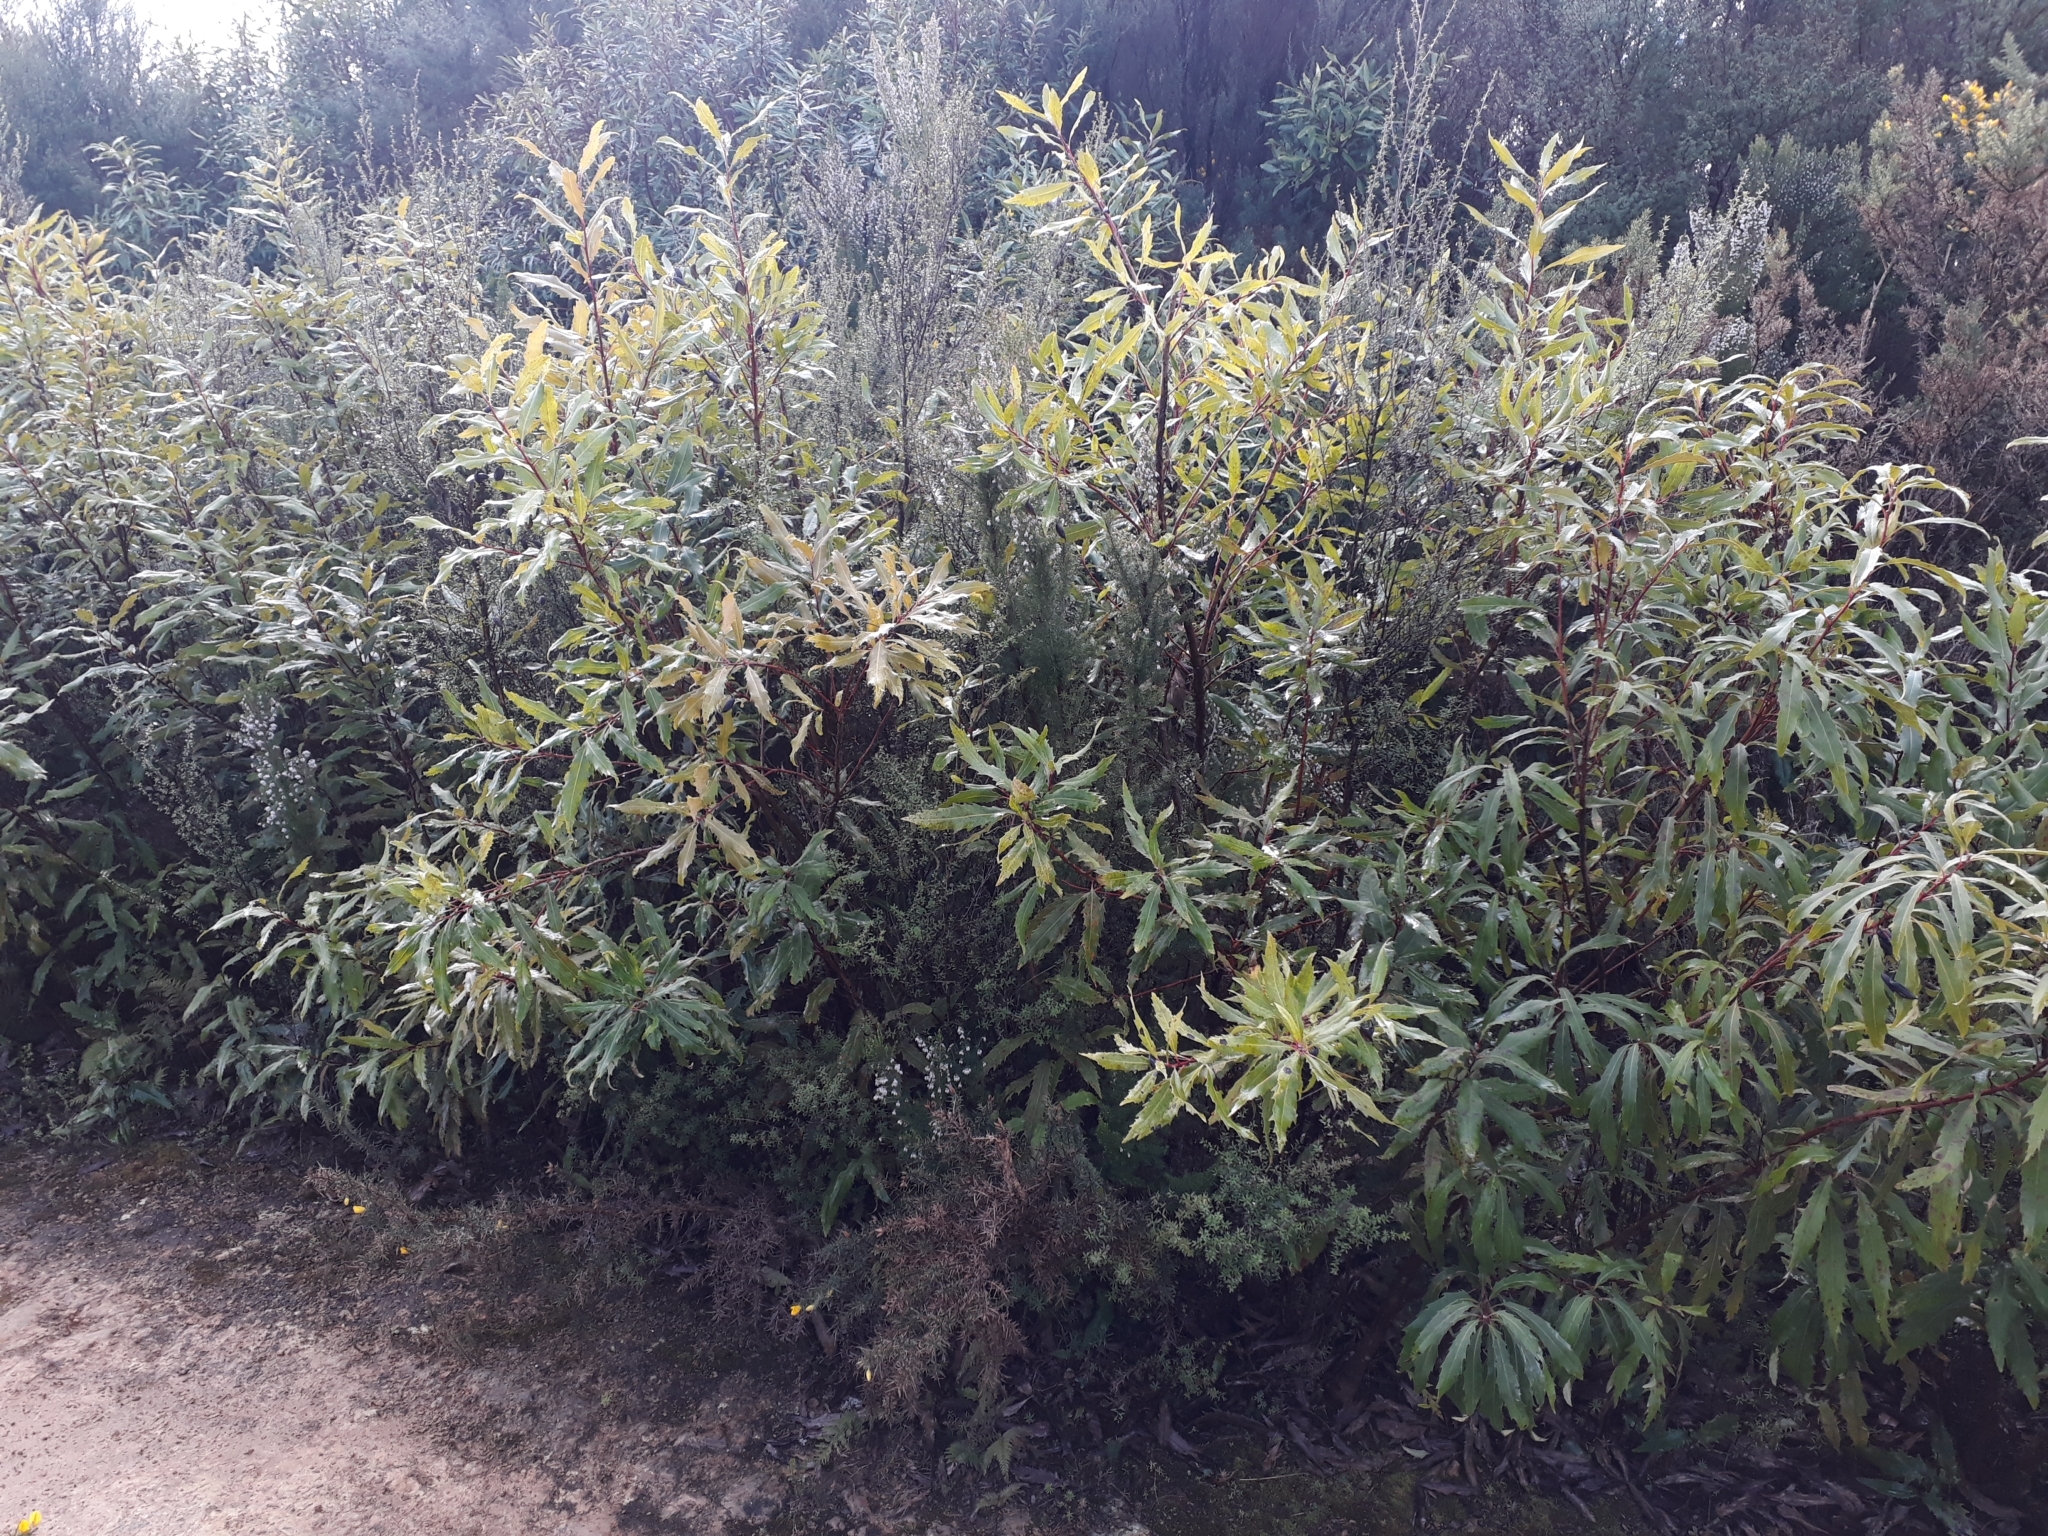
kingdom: Plantae
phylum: Tracheophyta
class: Magnoliopsida
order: Proteales
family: Proteaceae
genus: Lomatia
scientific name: Lomatia fraseri
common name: Forest lomatia
